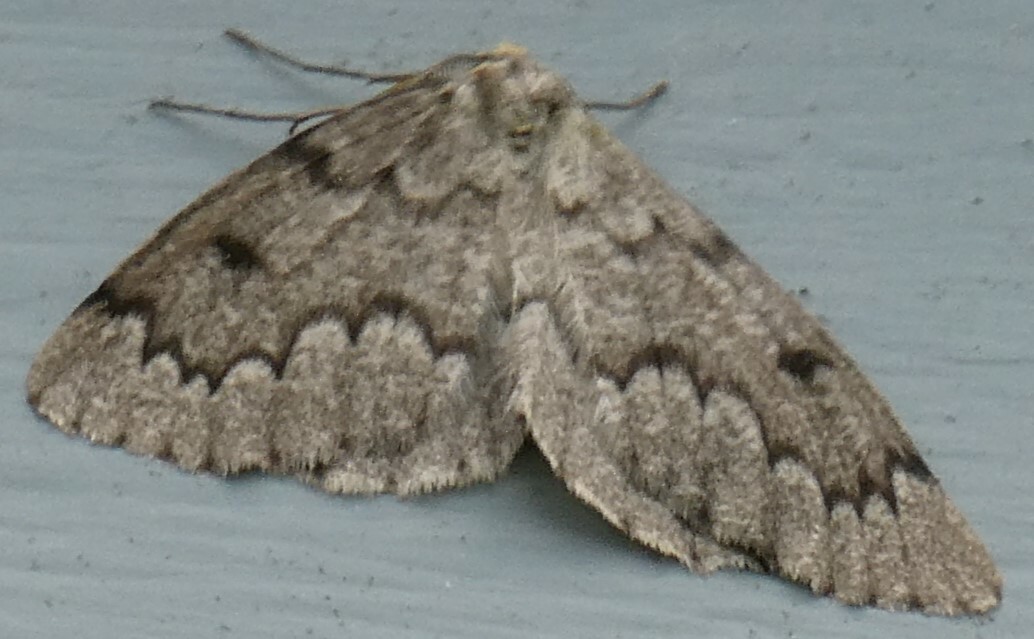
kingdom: Animalia
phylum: Arthropoda
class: Insecta
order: Lepidoptera
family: Geometridae
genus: Nepytia
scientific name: Nepytia canosaria
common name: False hemlock looper
